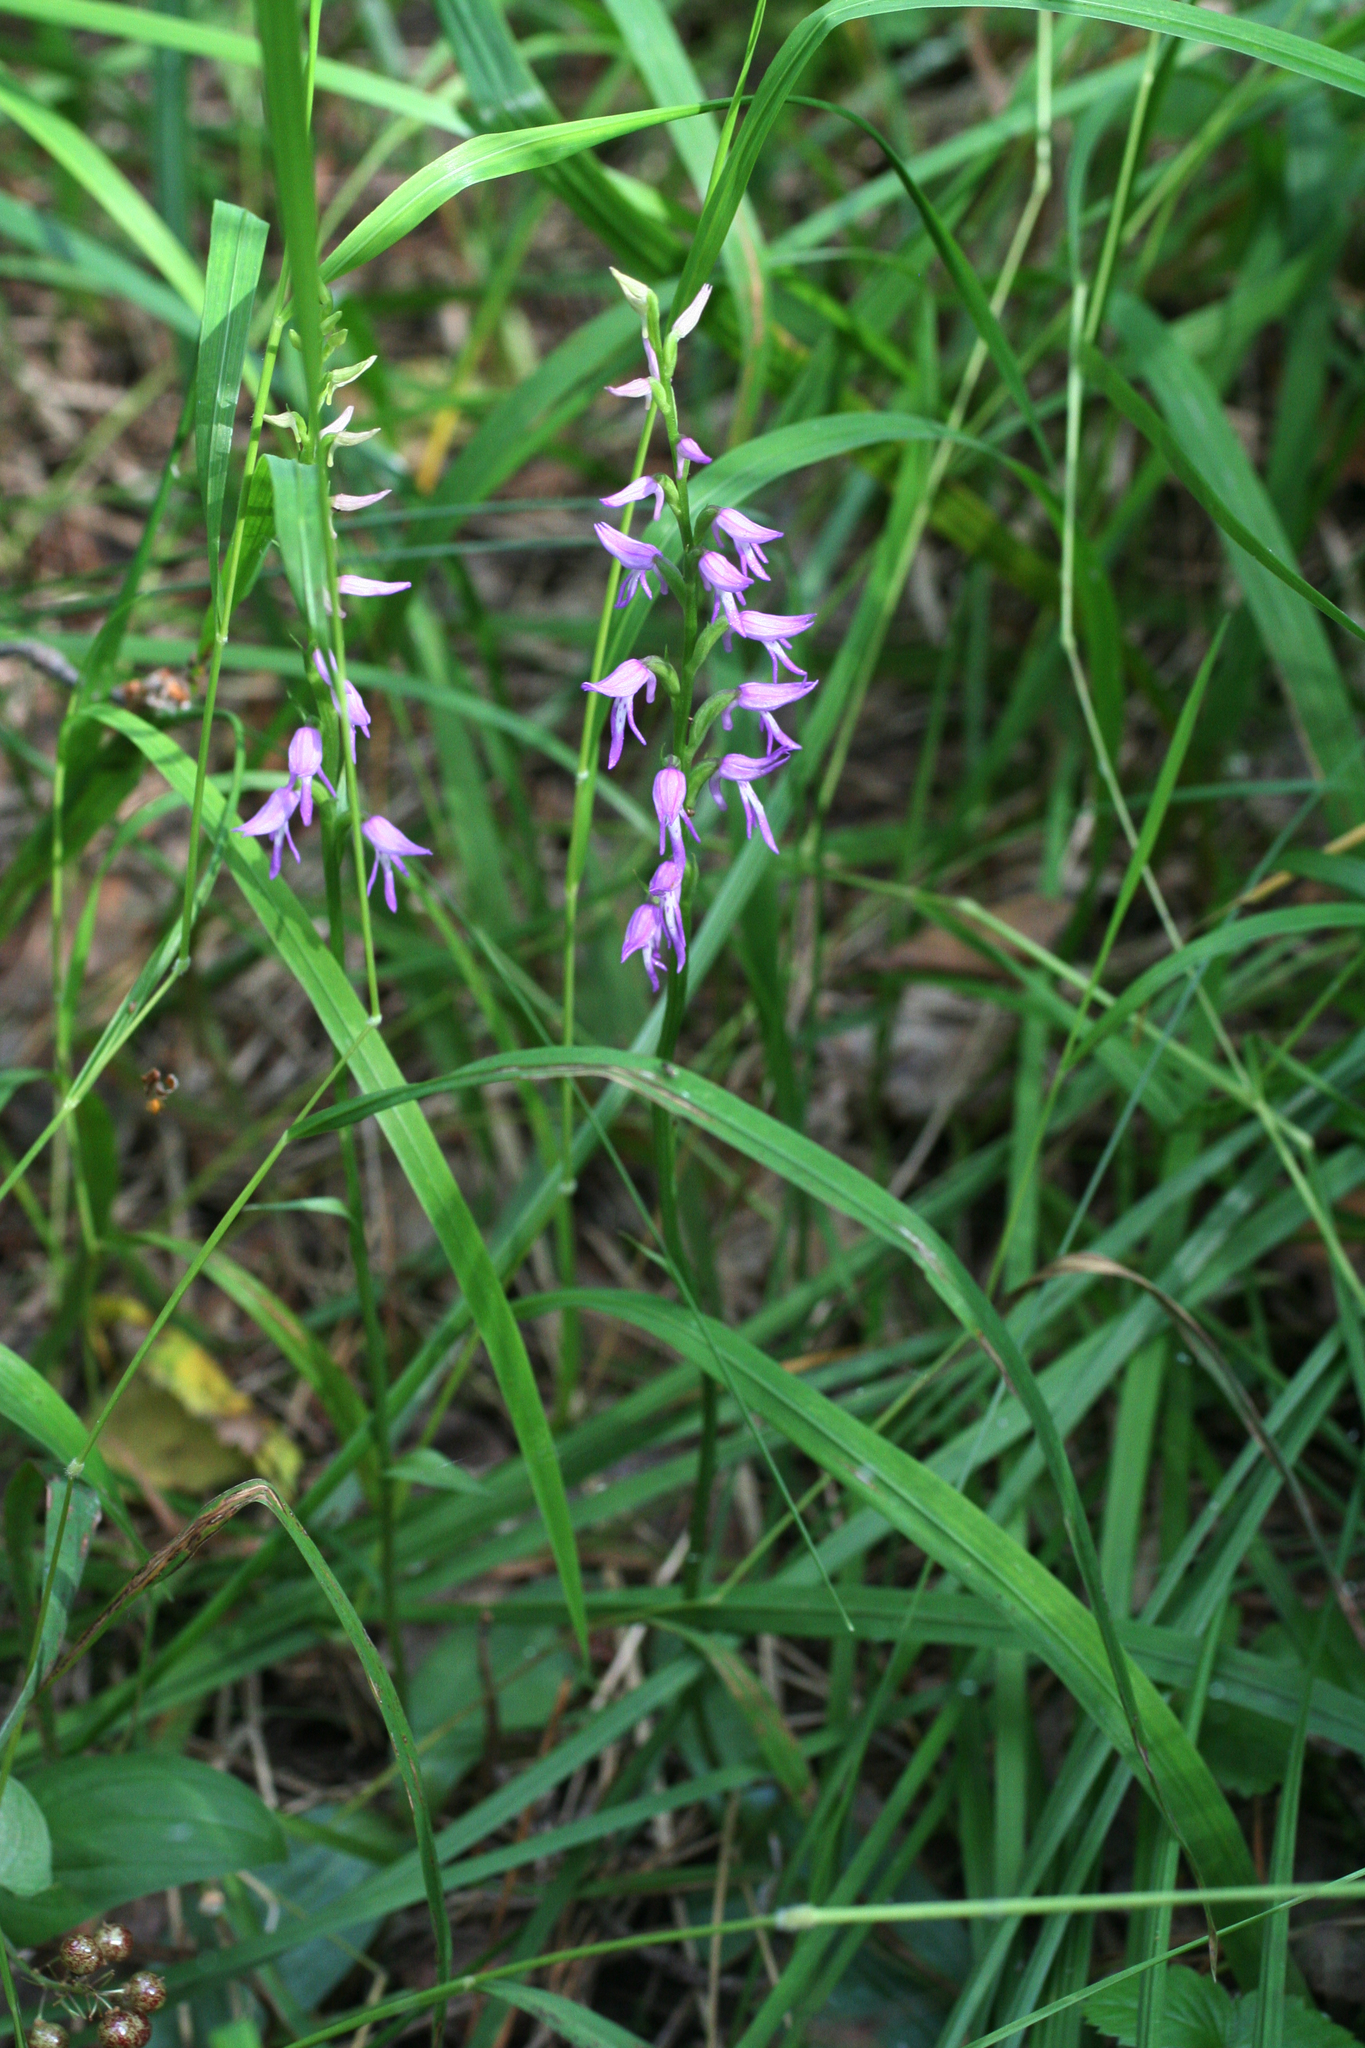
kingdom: Plantae
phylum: Tracheophyta
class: Liliopsida
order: Asparagales
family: Orchidaceae
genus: Hemipilia
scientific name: Hemipilia cucullata
